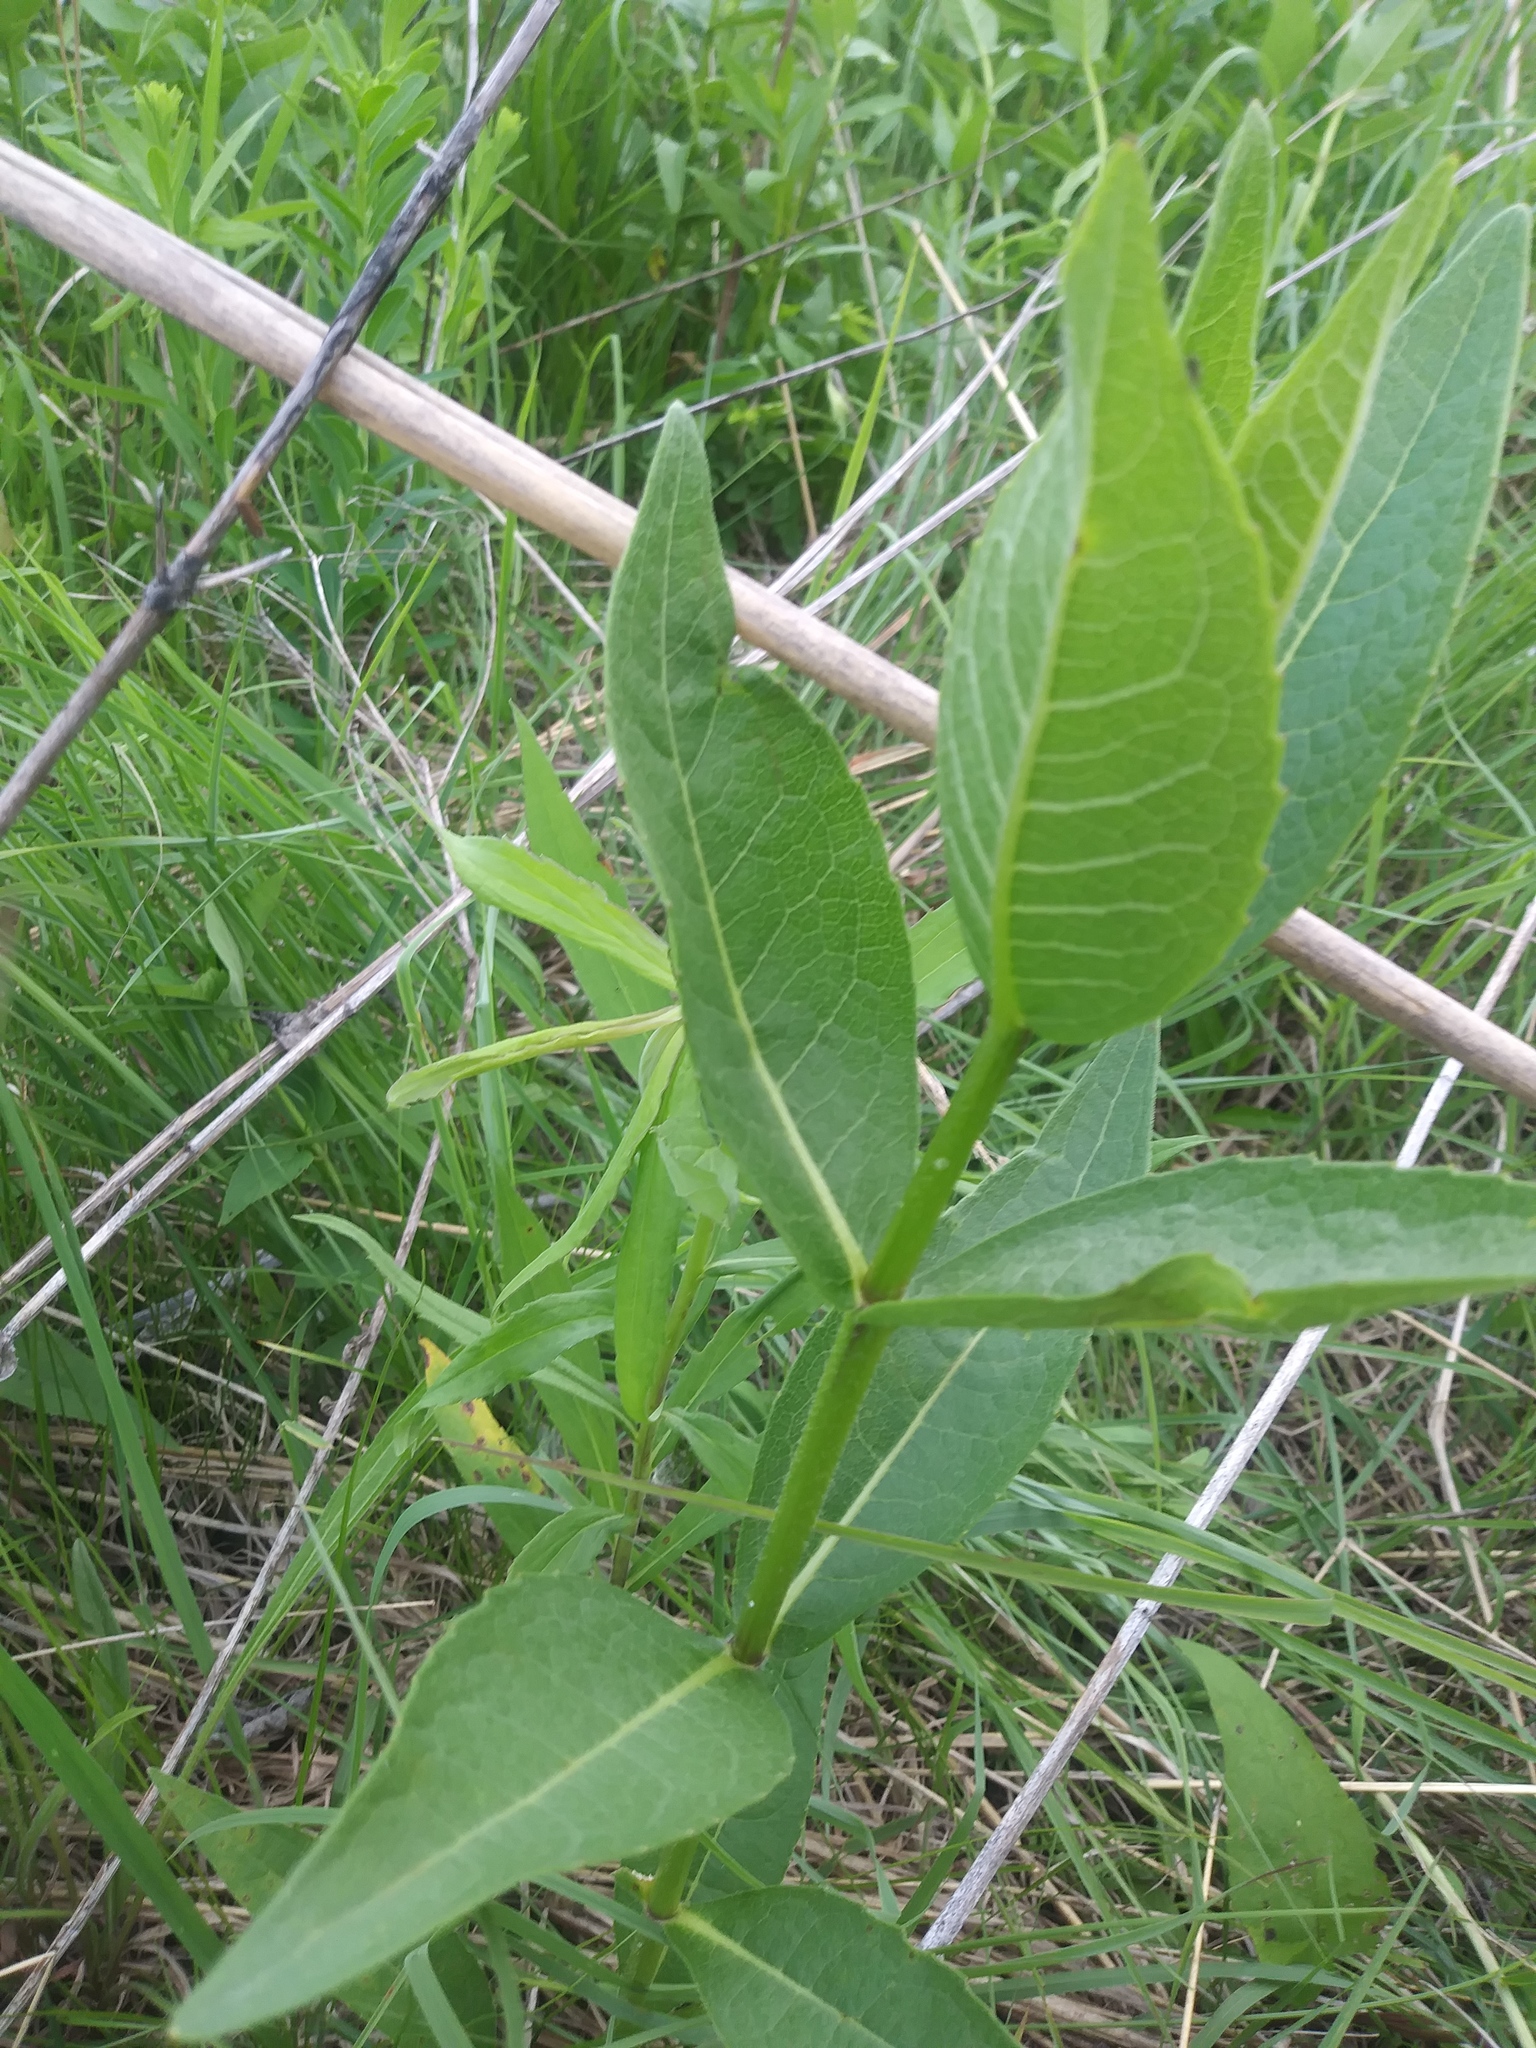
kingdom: Plantae
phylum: Tracheophyta
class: Magnoliopsida
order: Asterales
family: Asteraceae
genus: Silphium
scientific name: Silphium integrifolium
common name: Whole-leaf rosinweed
